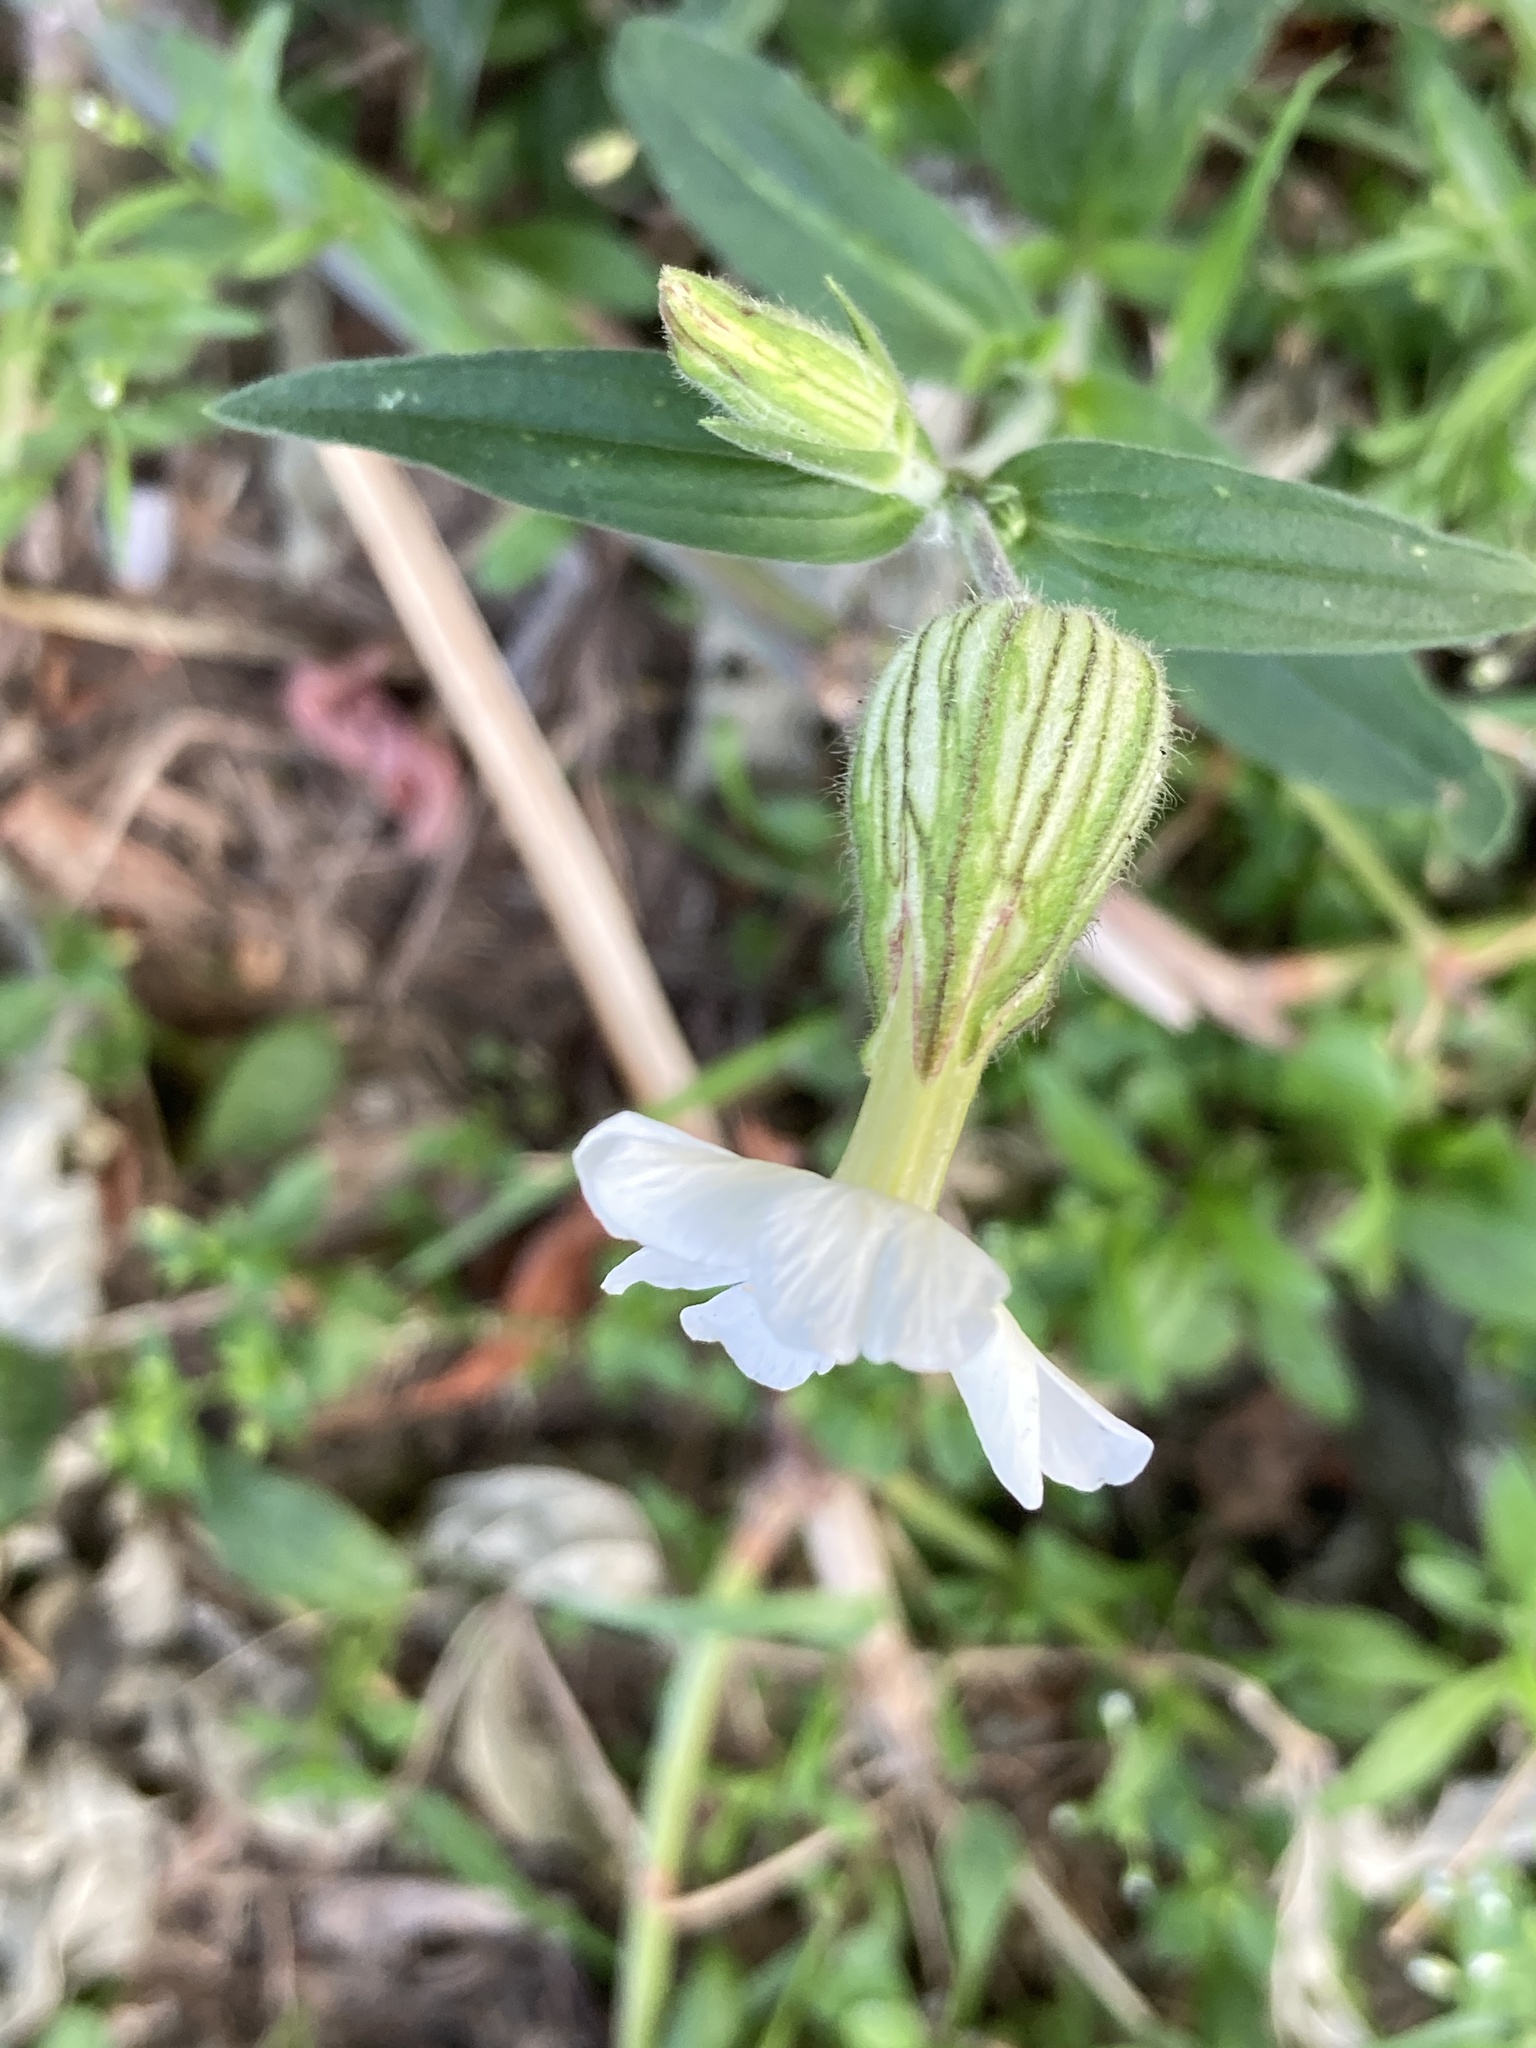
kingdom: Plantae
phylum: Tracheophyta
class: Magnoliopsida
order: Caryophyllales
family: Caryophyllaceae
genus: Silene
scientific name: Silene latifolia
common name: White campion
